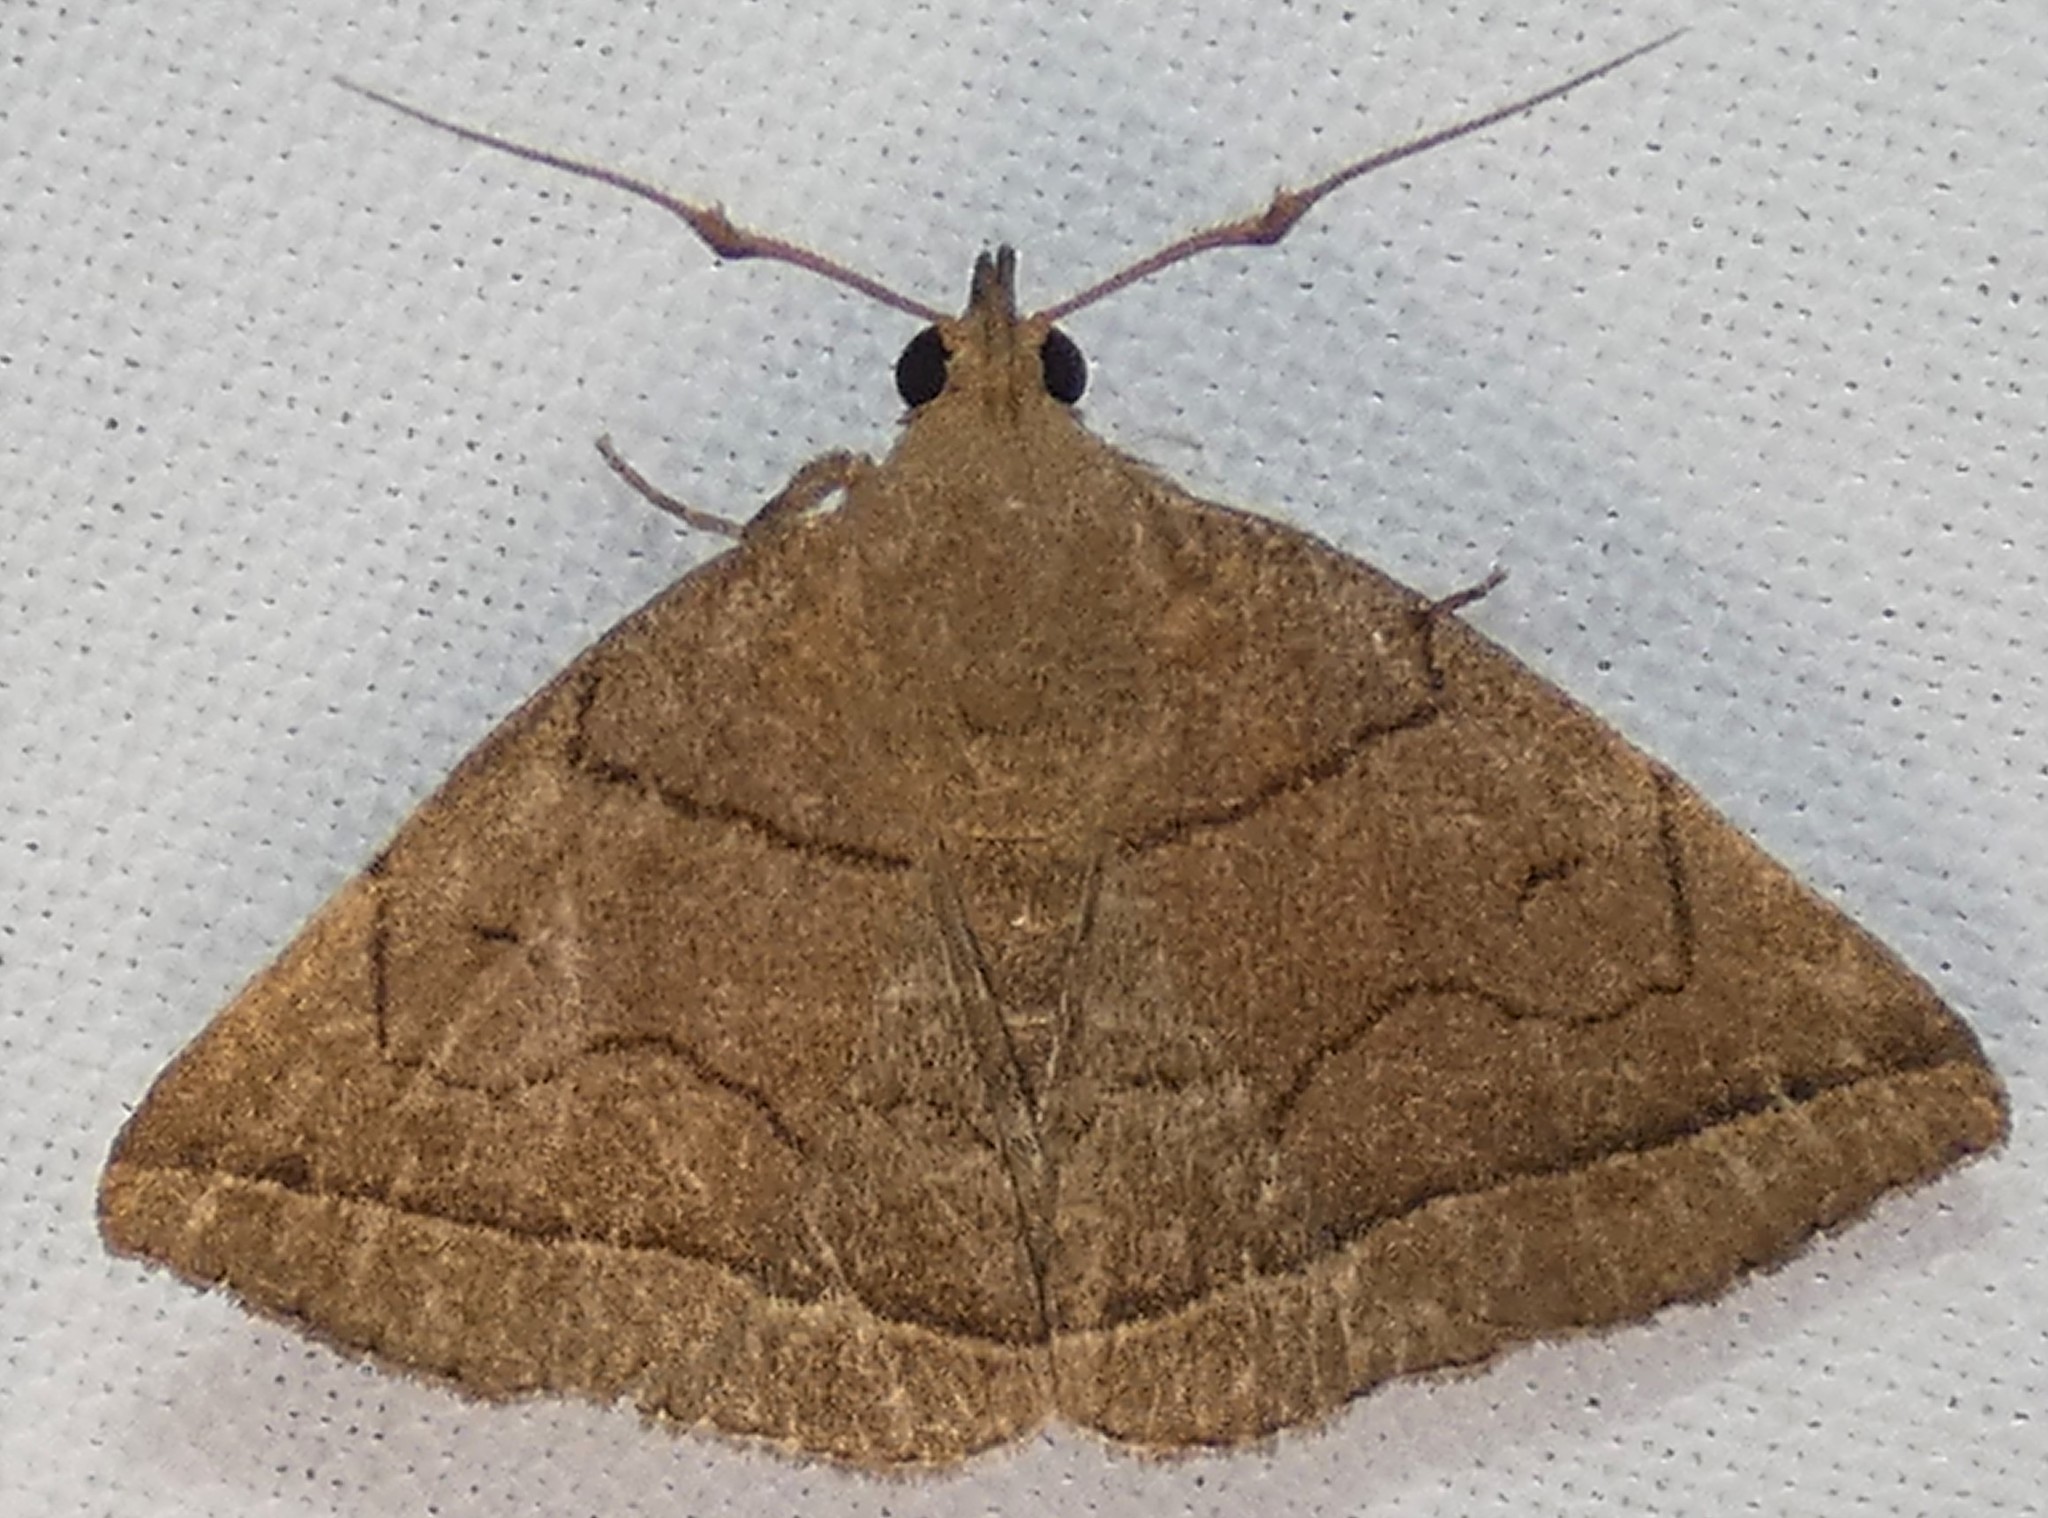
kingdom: Animalia
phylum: Arthropoda
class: Insecta
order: Lepidoptera
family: Erebidae
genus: Zanclognatha
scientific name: Zanclognatha cruralis
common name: Early fan-foot
